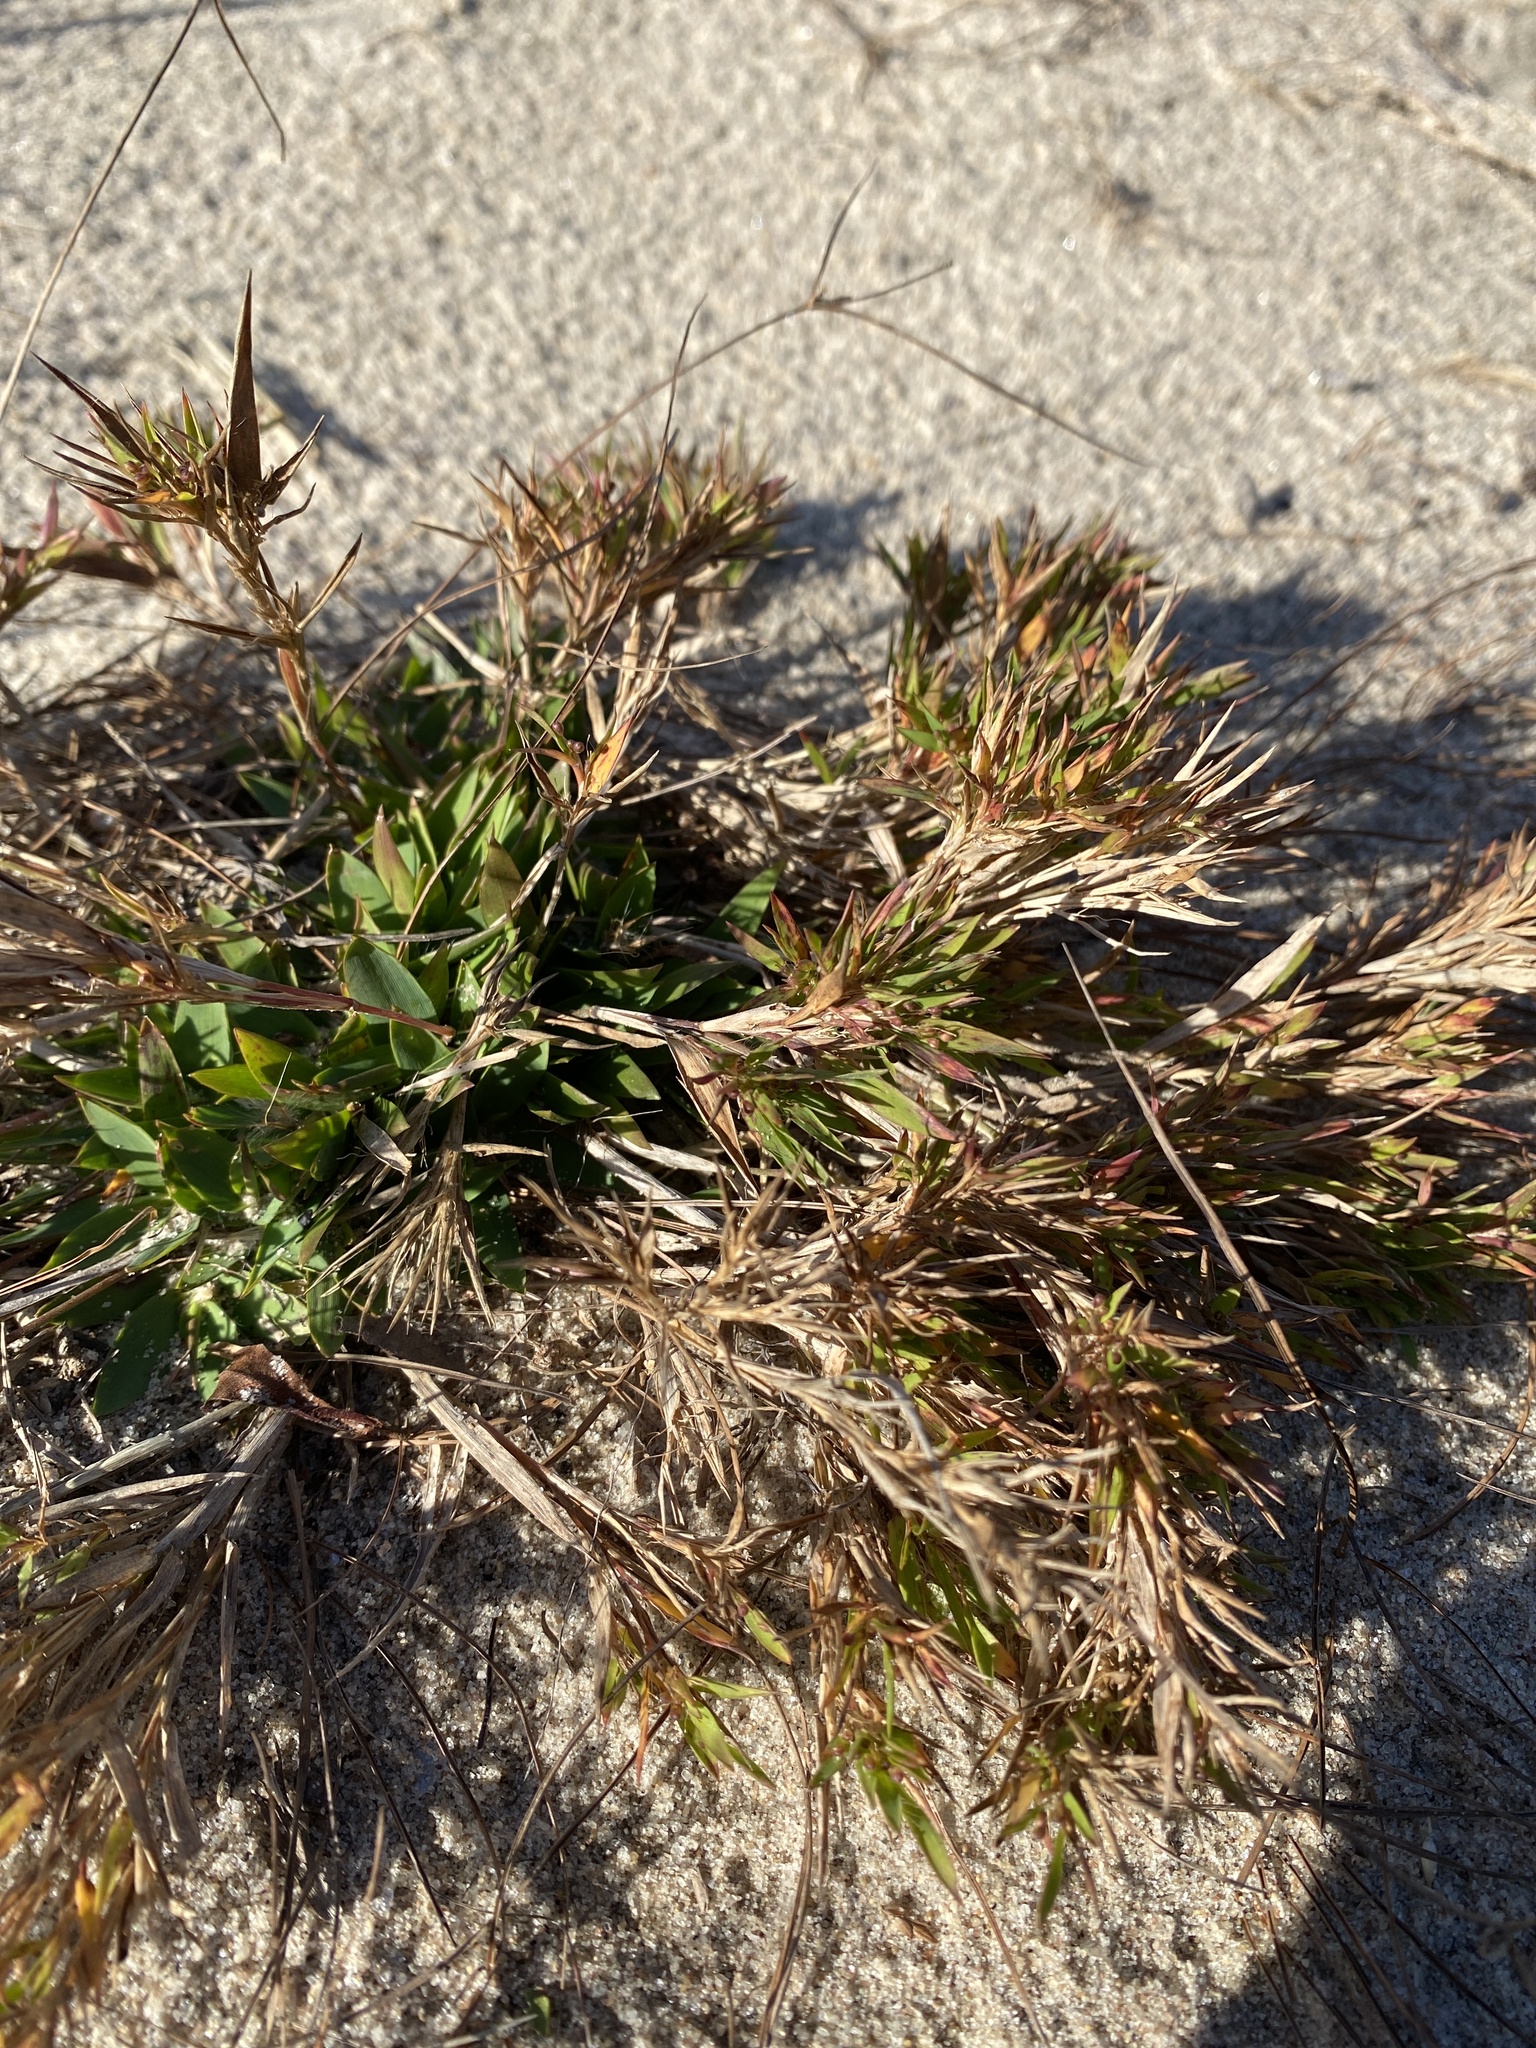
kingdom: Plantae
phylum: Tracheophyta
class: Liliopsida
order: Poales
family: Poaceae
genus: Dichanthelium
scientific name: Dichanthelium columbianum
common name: Hemlock panic grass
